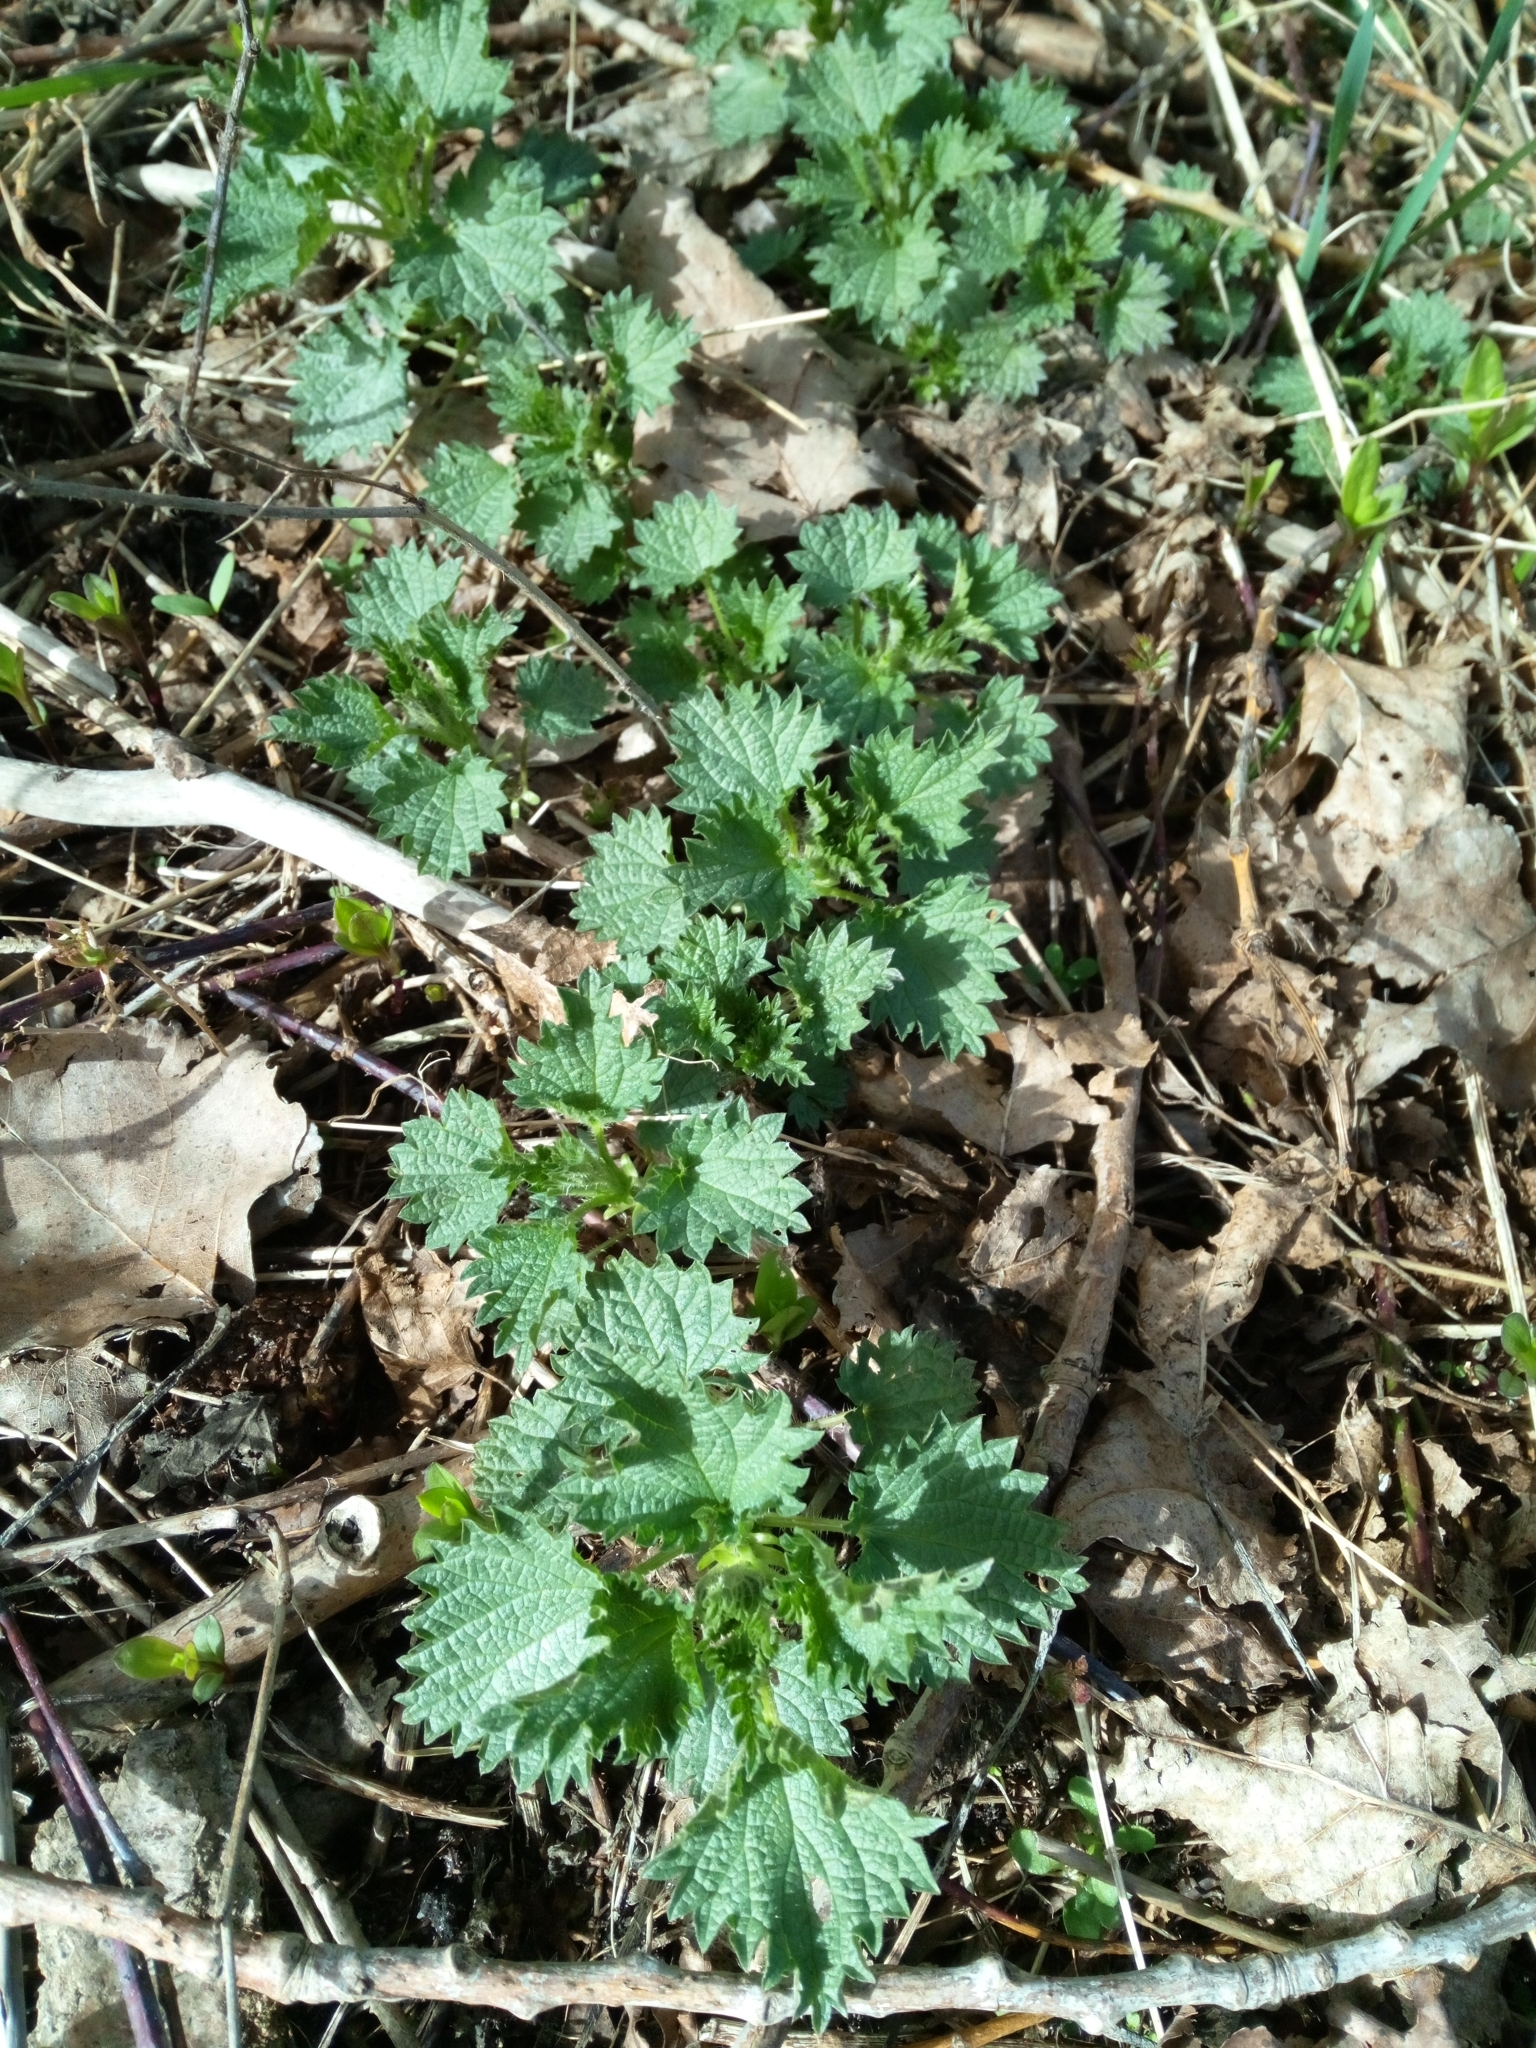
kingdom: Plantae
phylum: Tracheophyta
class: Magnoliopsida
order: Rosales
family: Urticaceae
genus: Urtica
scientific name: Urtica dioica
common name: Common nettle
